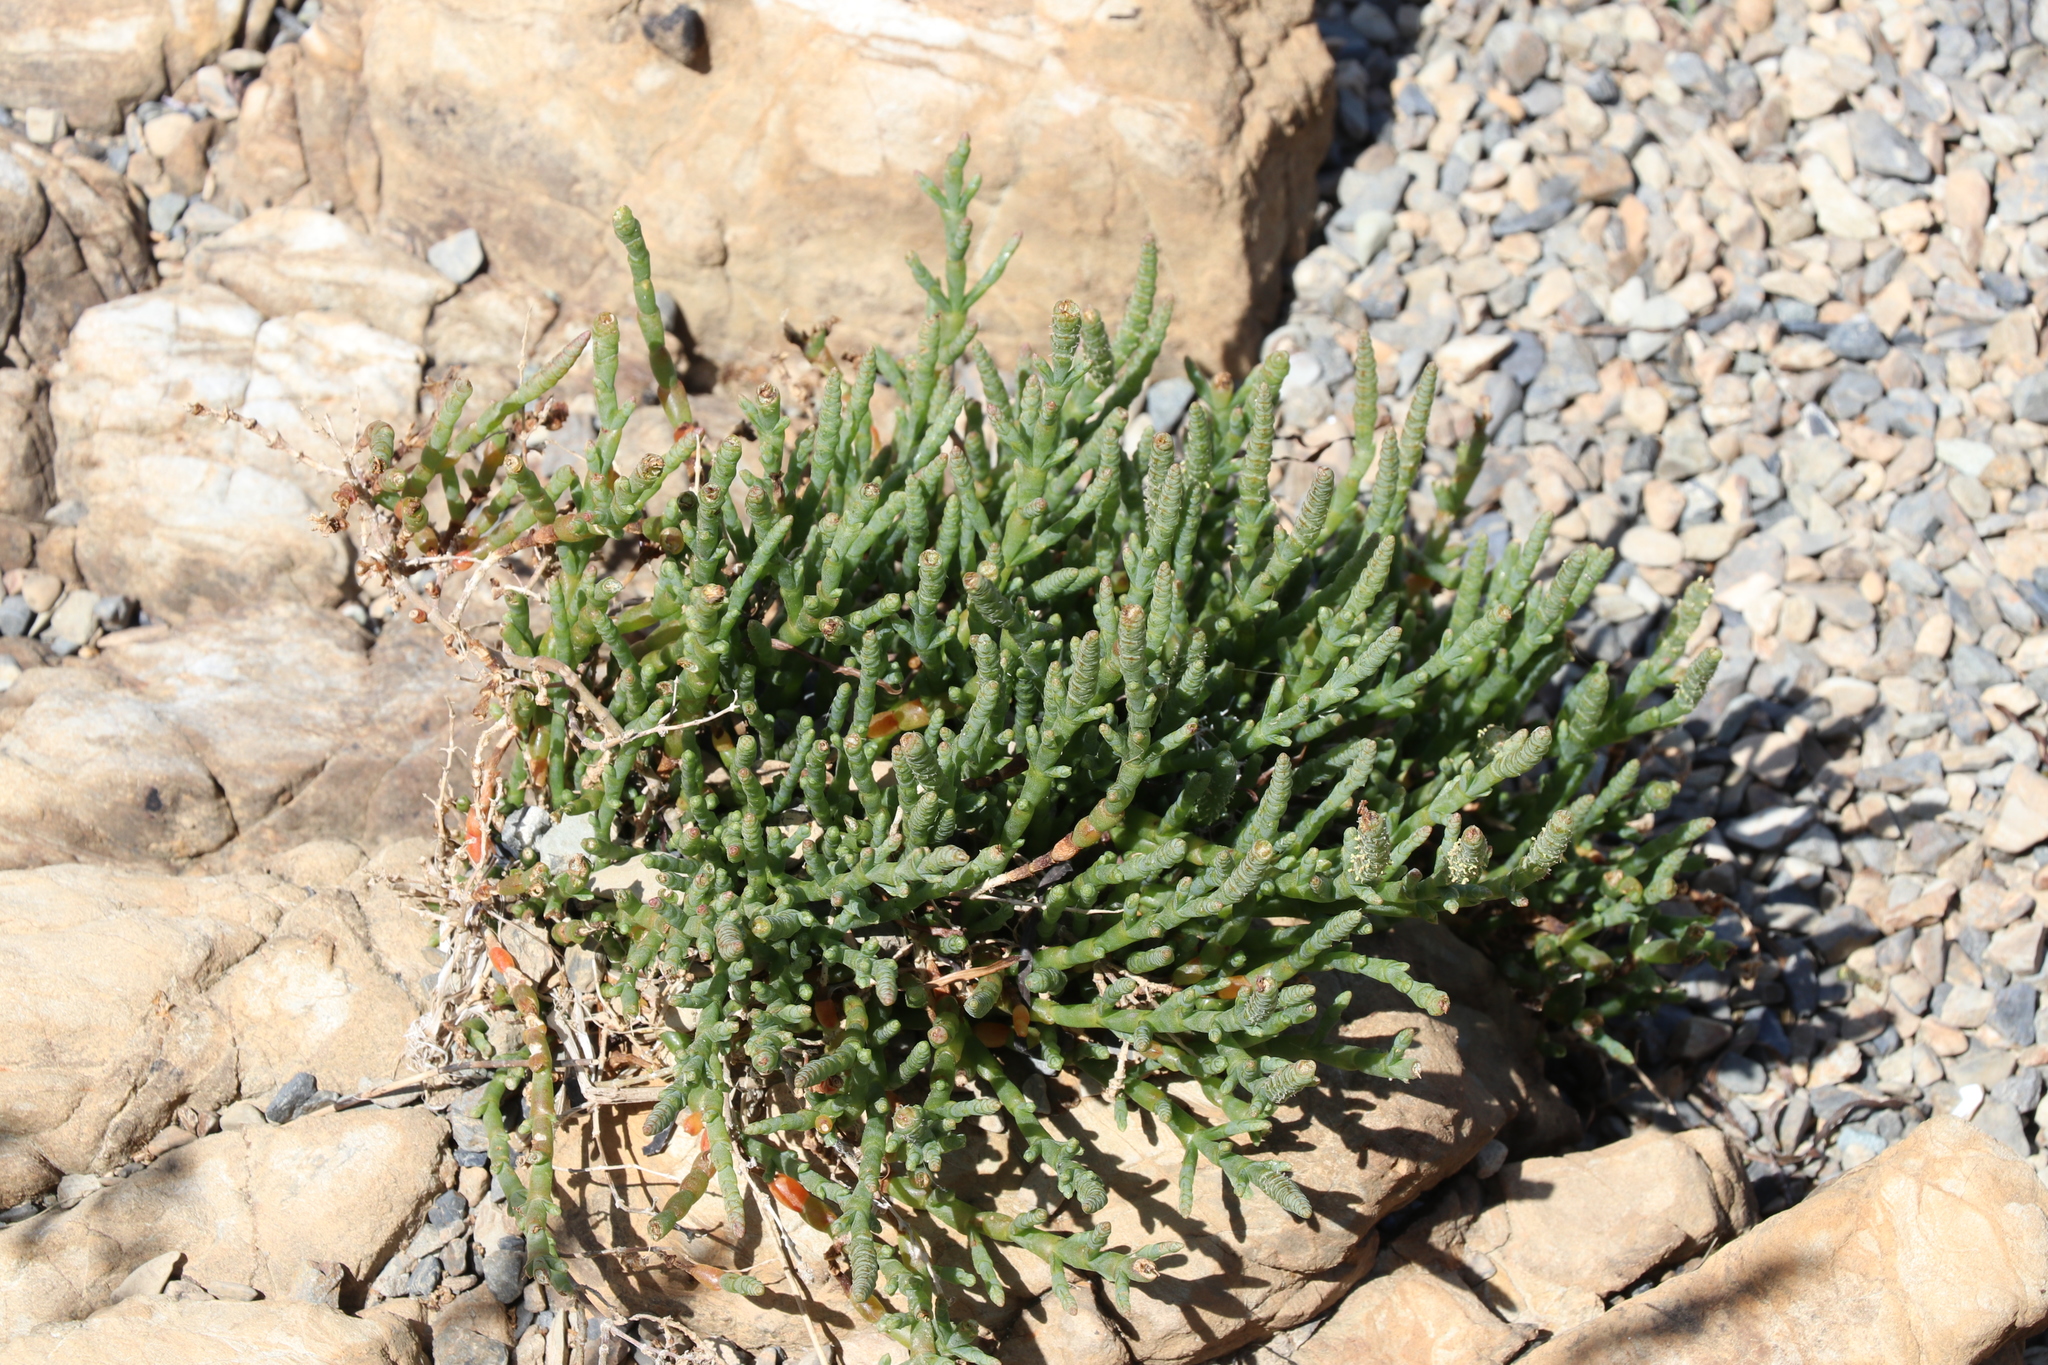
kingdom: Plantae
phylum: Tracheophyta
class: Magnoliopsida
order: Caryophyllales
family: Amaranthaceae
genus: Salicornia
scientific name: Salicornia quinqueflora
